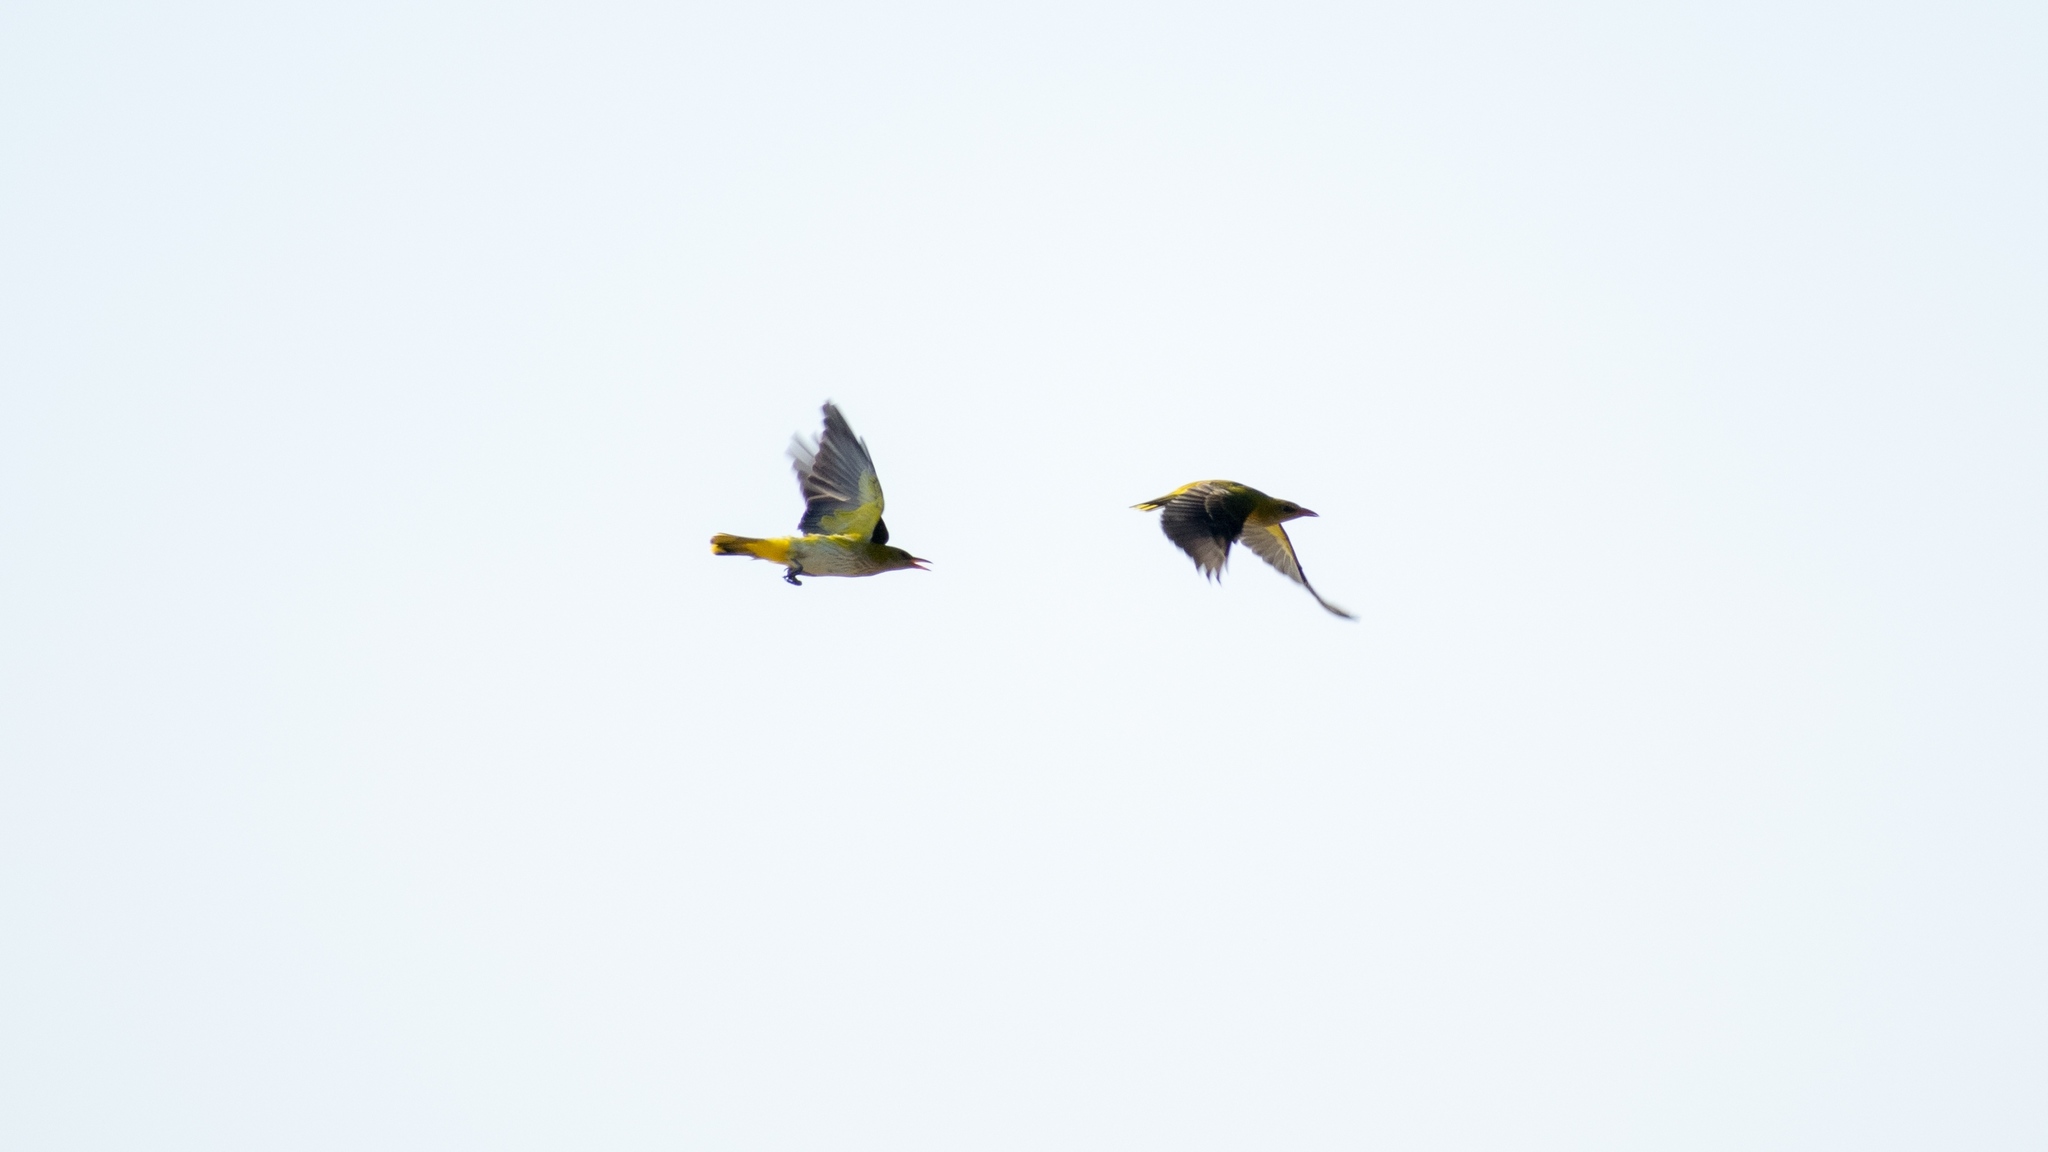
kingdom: Animalia
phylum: Chordata
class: Aves
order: Passeriformes
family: Oriolidae
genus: Oriolus
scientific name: Oriolus oriolus
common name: Eurasian golden oriole
